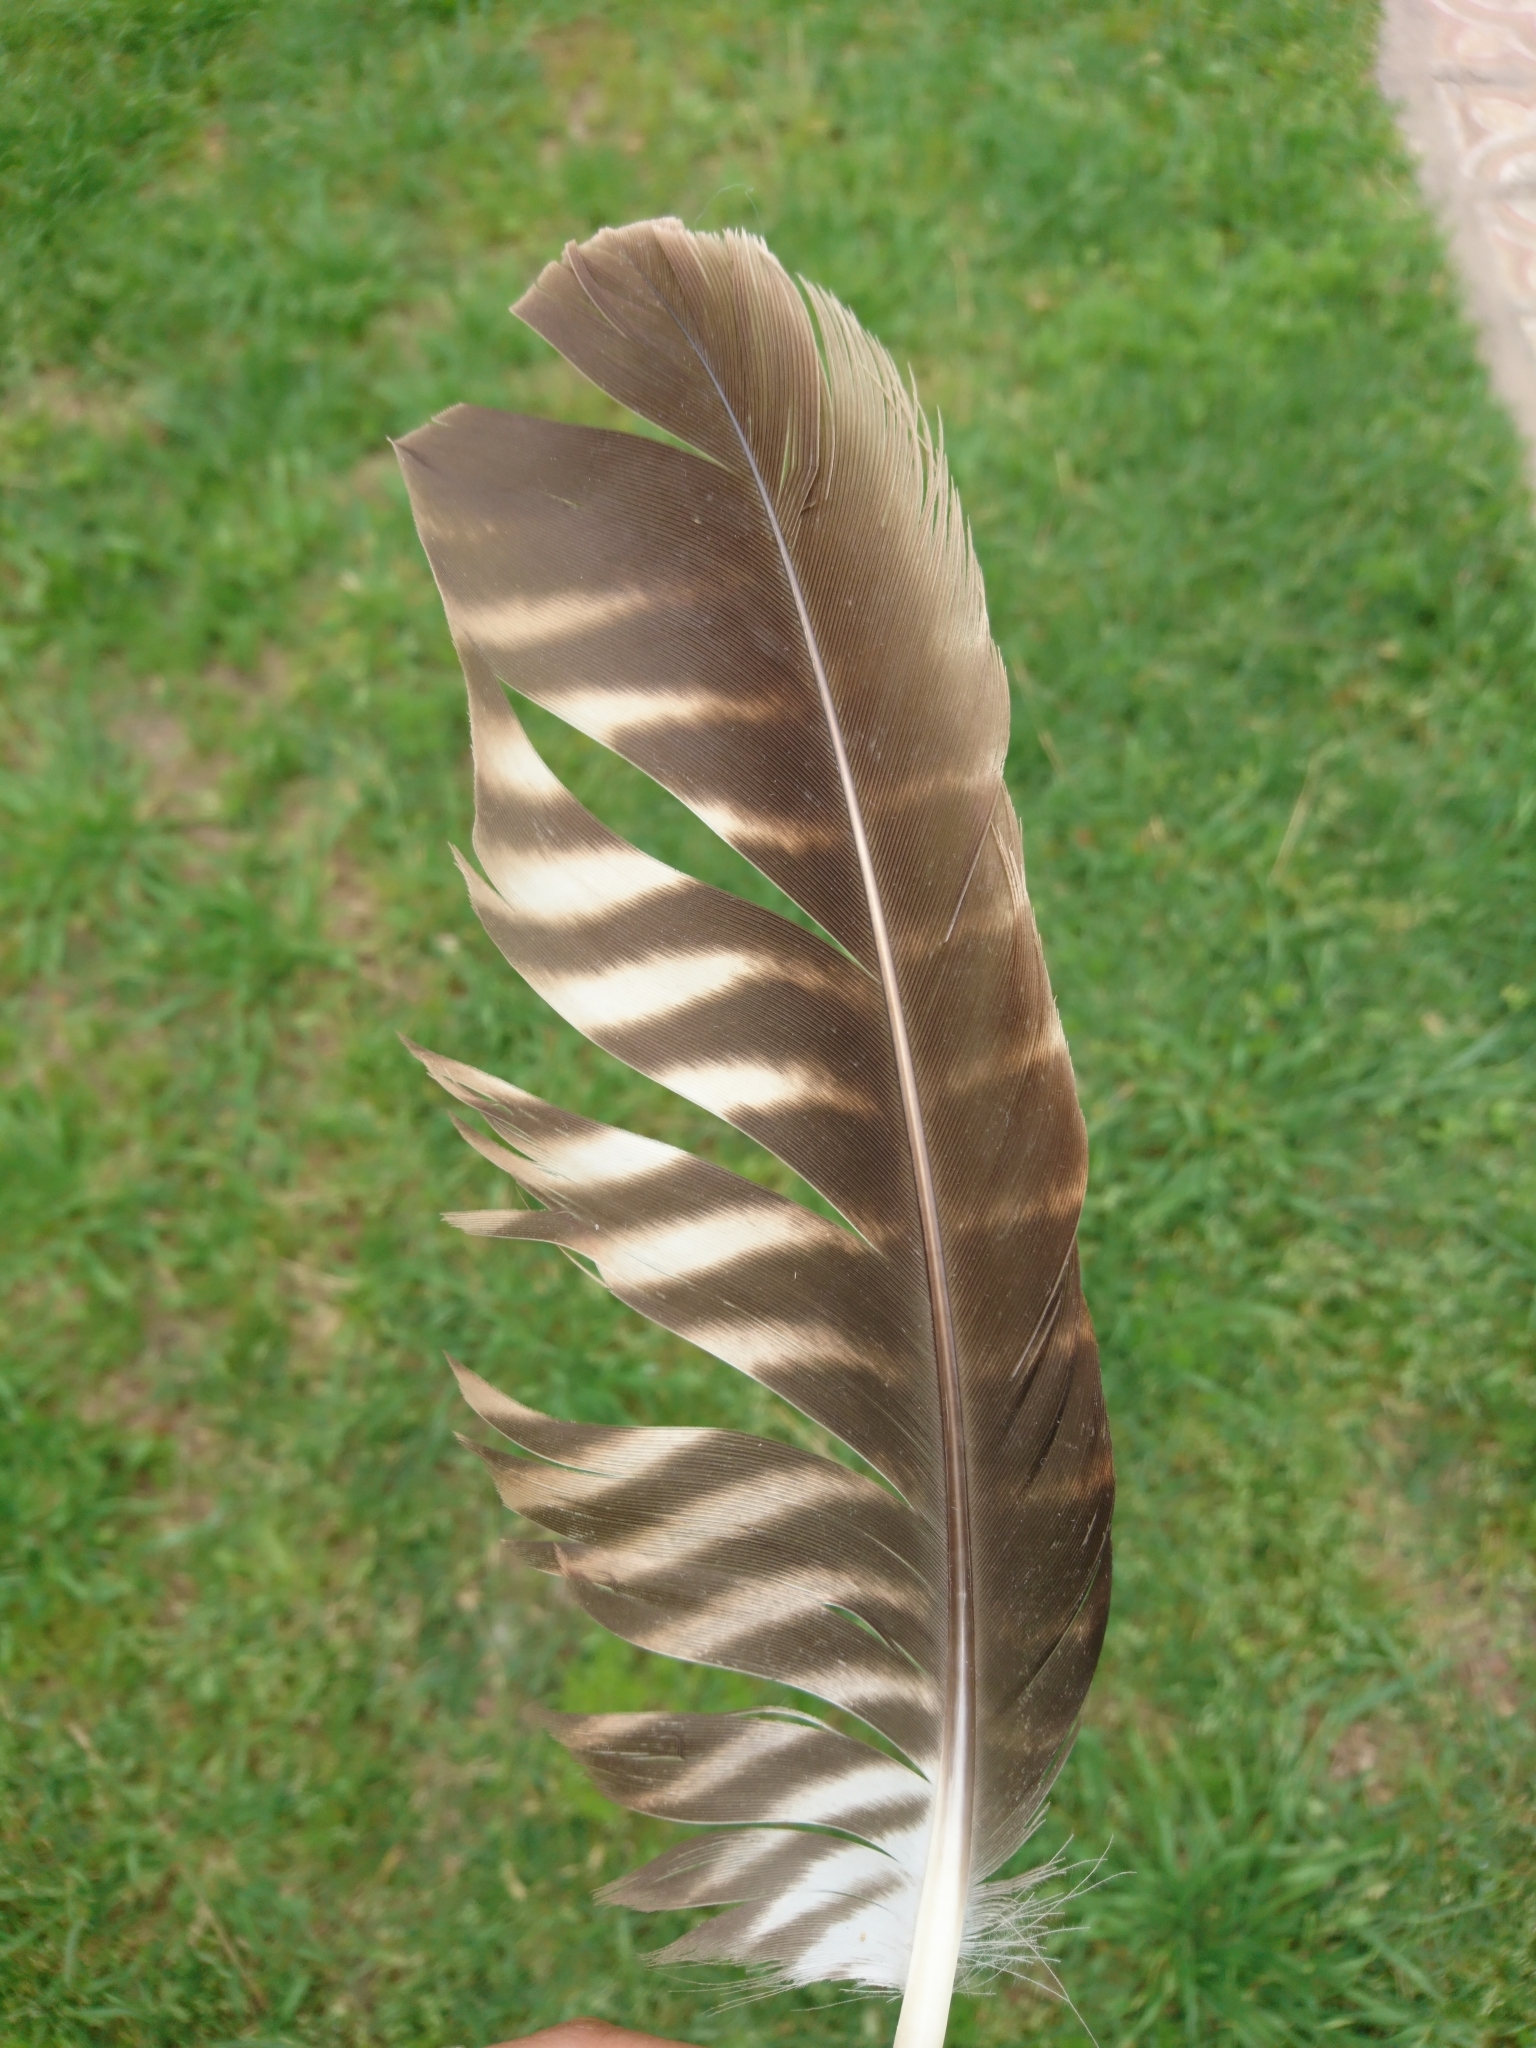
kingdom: Animalia
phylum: Chordata
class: Aves
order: Falconiformes
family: Falconidae
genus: Daptrius
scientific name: Daptrius
